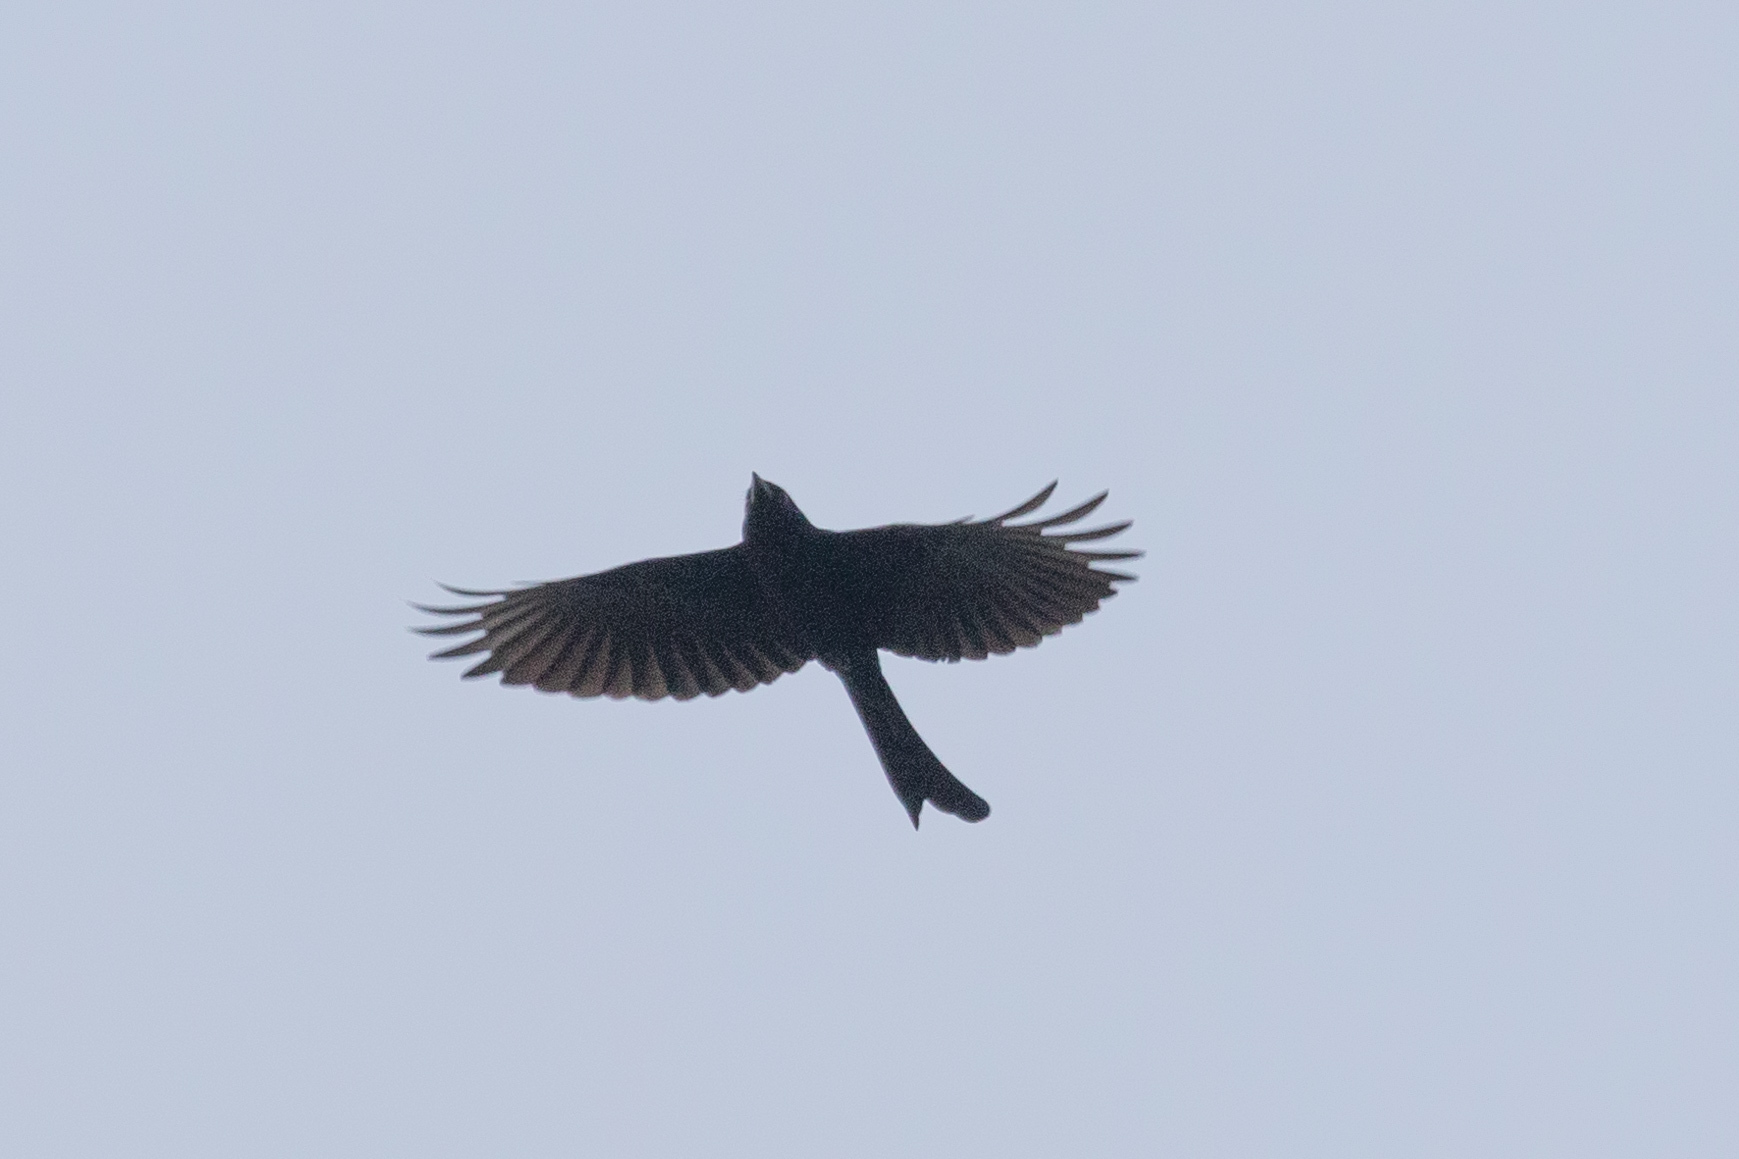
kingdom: Animalia
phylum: Chordata
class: Aves
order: Passeriformes
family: Dicruridae
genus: Dicrurus
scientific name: Dicrurus macrocercus
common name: Black drongo
